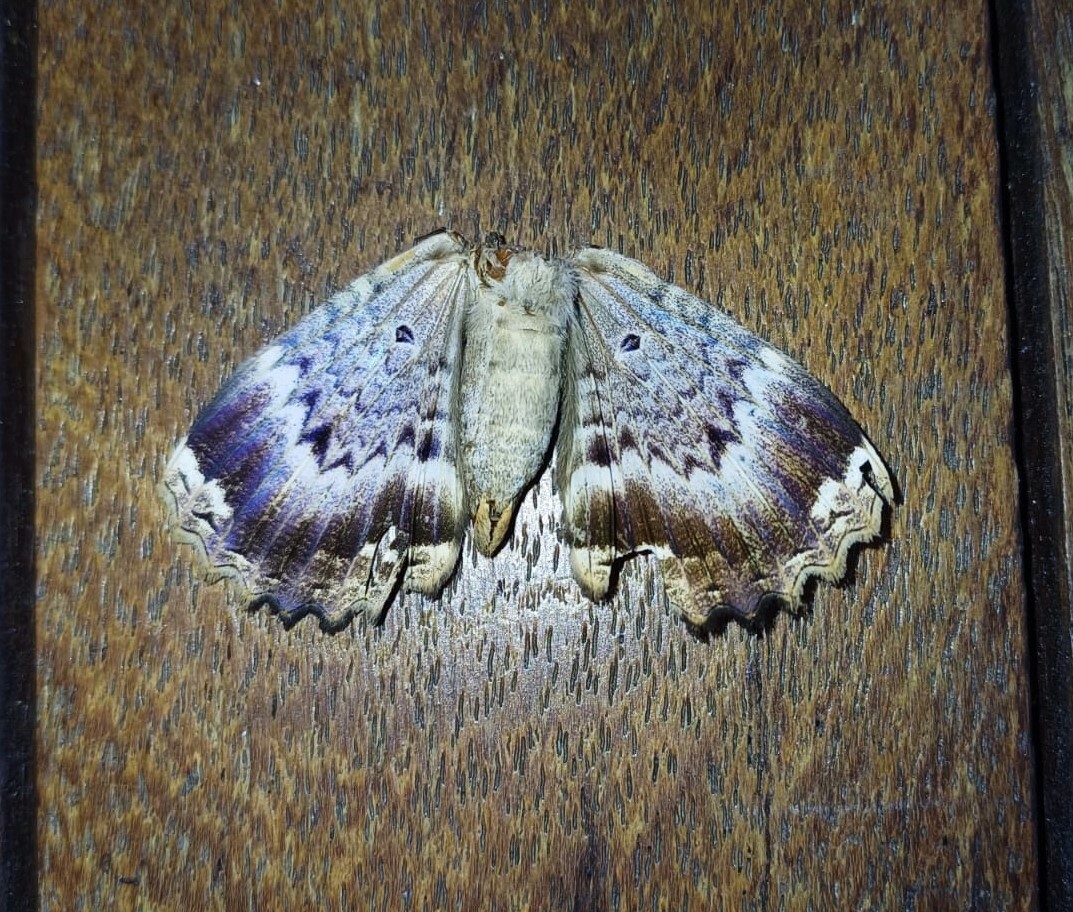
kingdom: Animalia
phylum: Arthropoda
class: Insecta
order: Lepidoptera
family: Noctuidae
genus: Ronania
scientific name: Ronania
